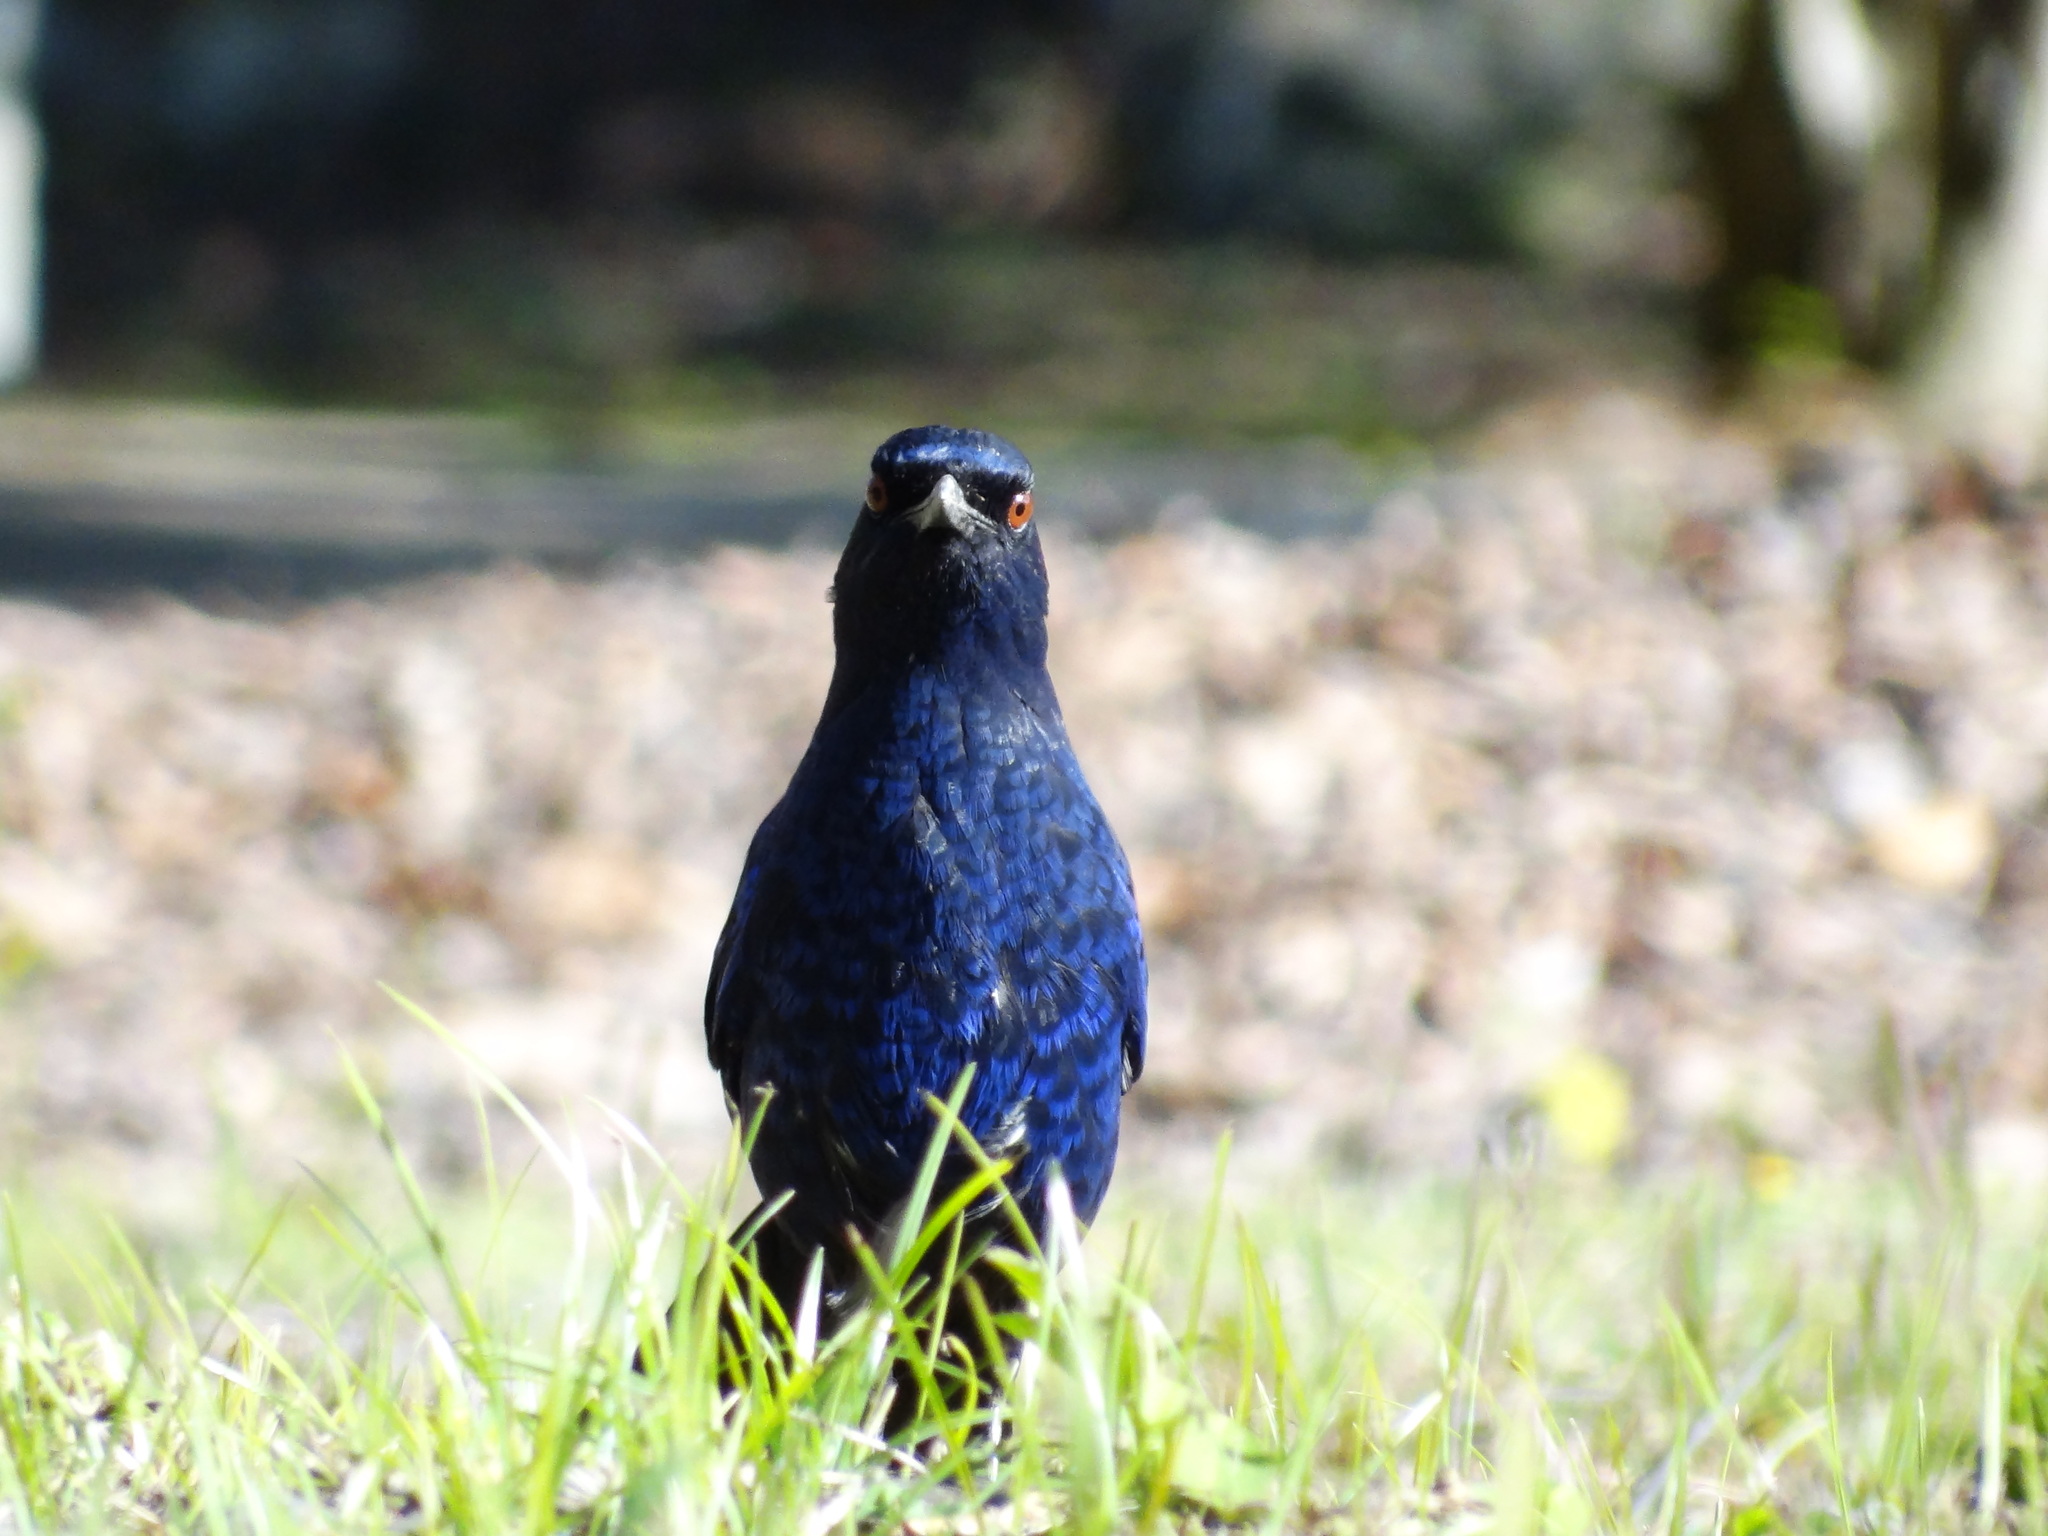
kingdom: Animalia
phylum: Chordata
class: Aves
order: Passeriformes
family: Muscicapidae
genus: Myophonus
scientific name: Myophonus insularis
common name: Taiwan whistling-thrush
